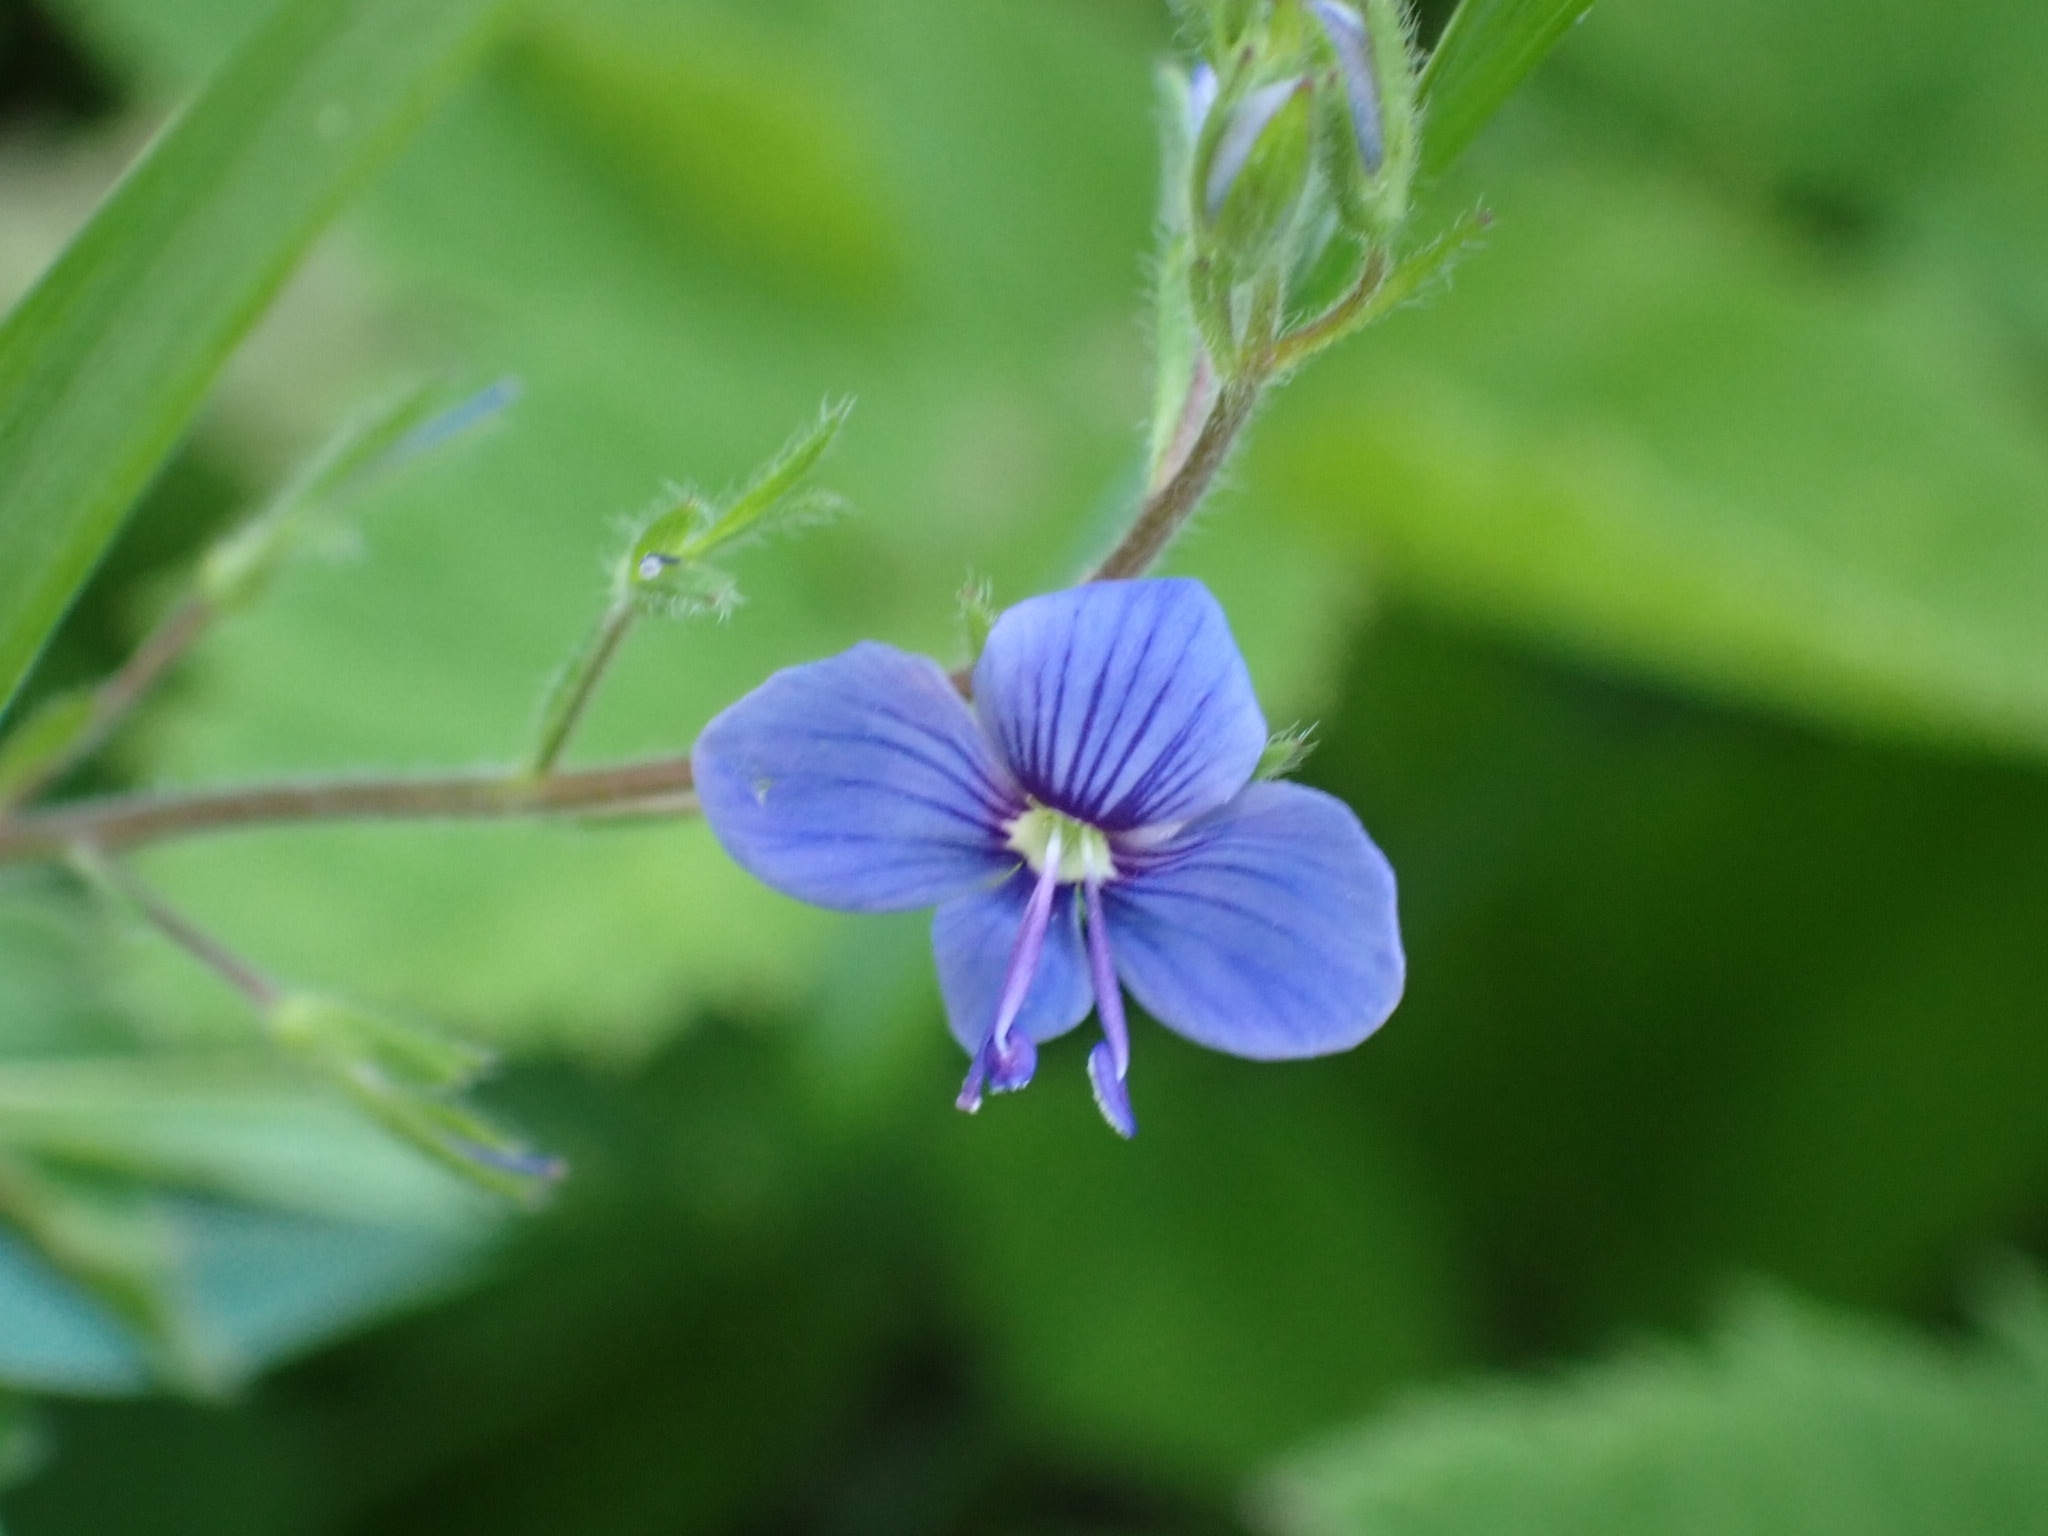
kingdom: Plantae
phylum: Tracheophyta
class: Magnoliopsida
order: Lamiales
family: Plantaginaceae
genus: Veronica
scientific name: Veronica chamaedrys
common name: Germander speedwell
